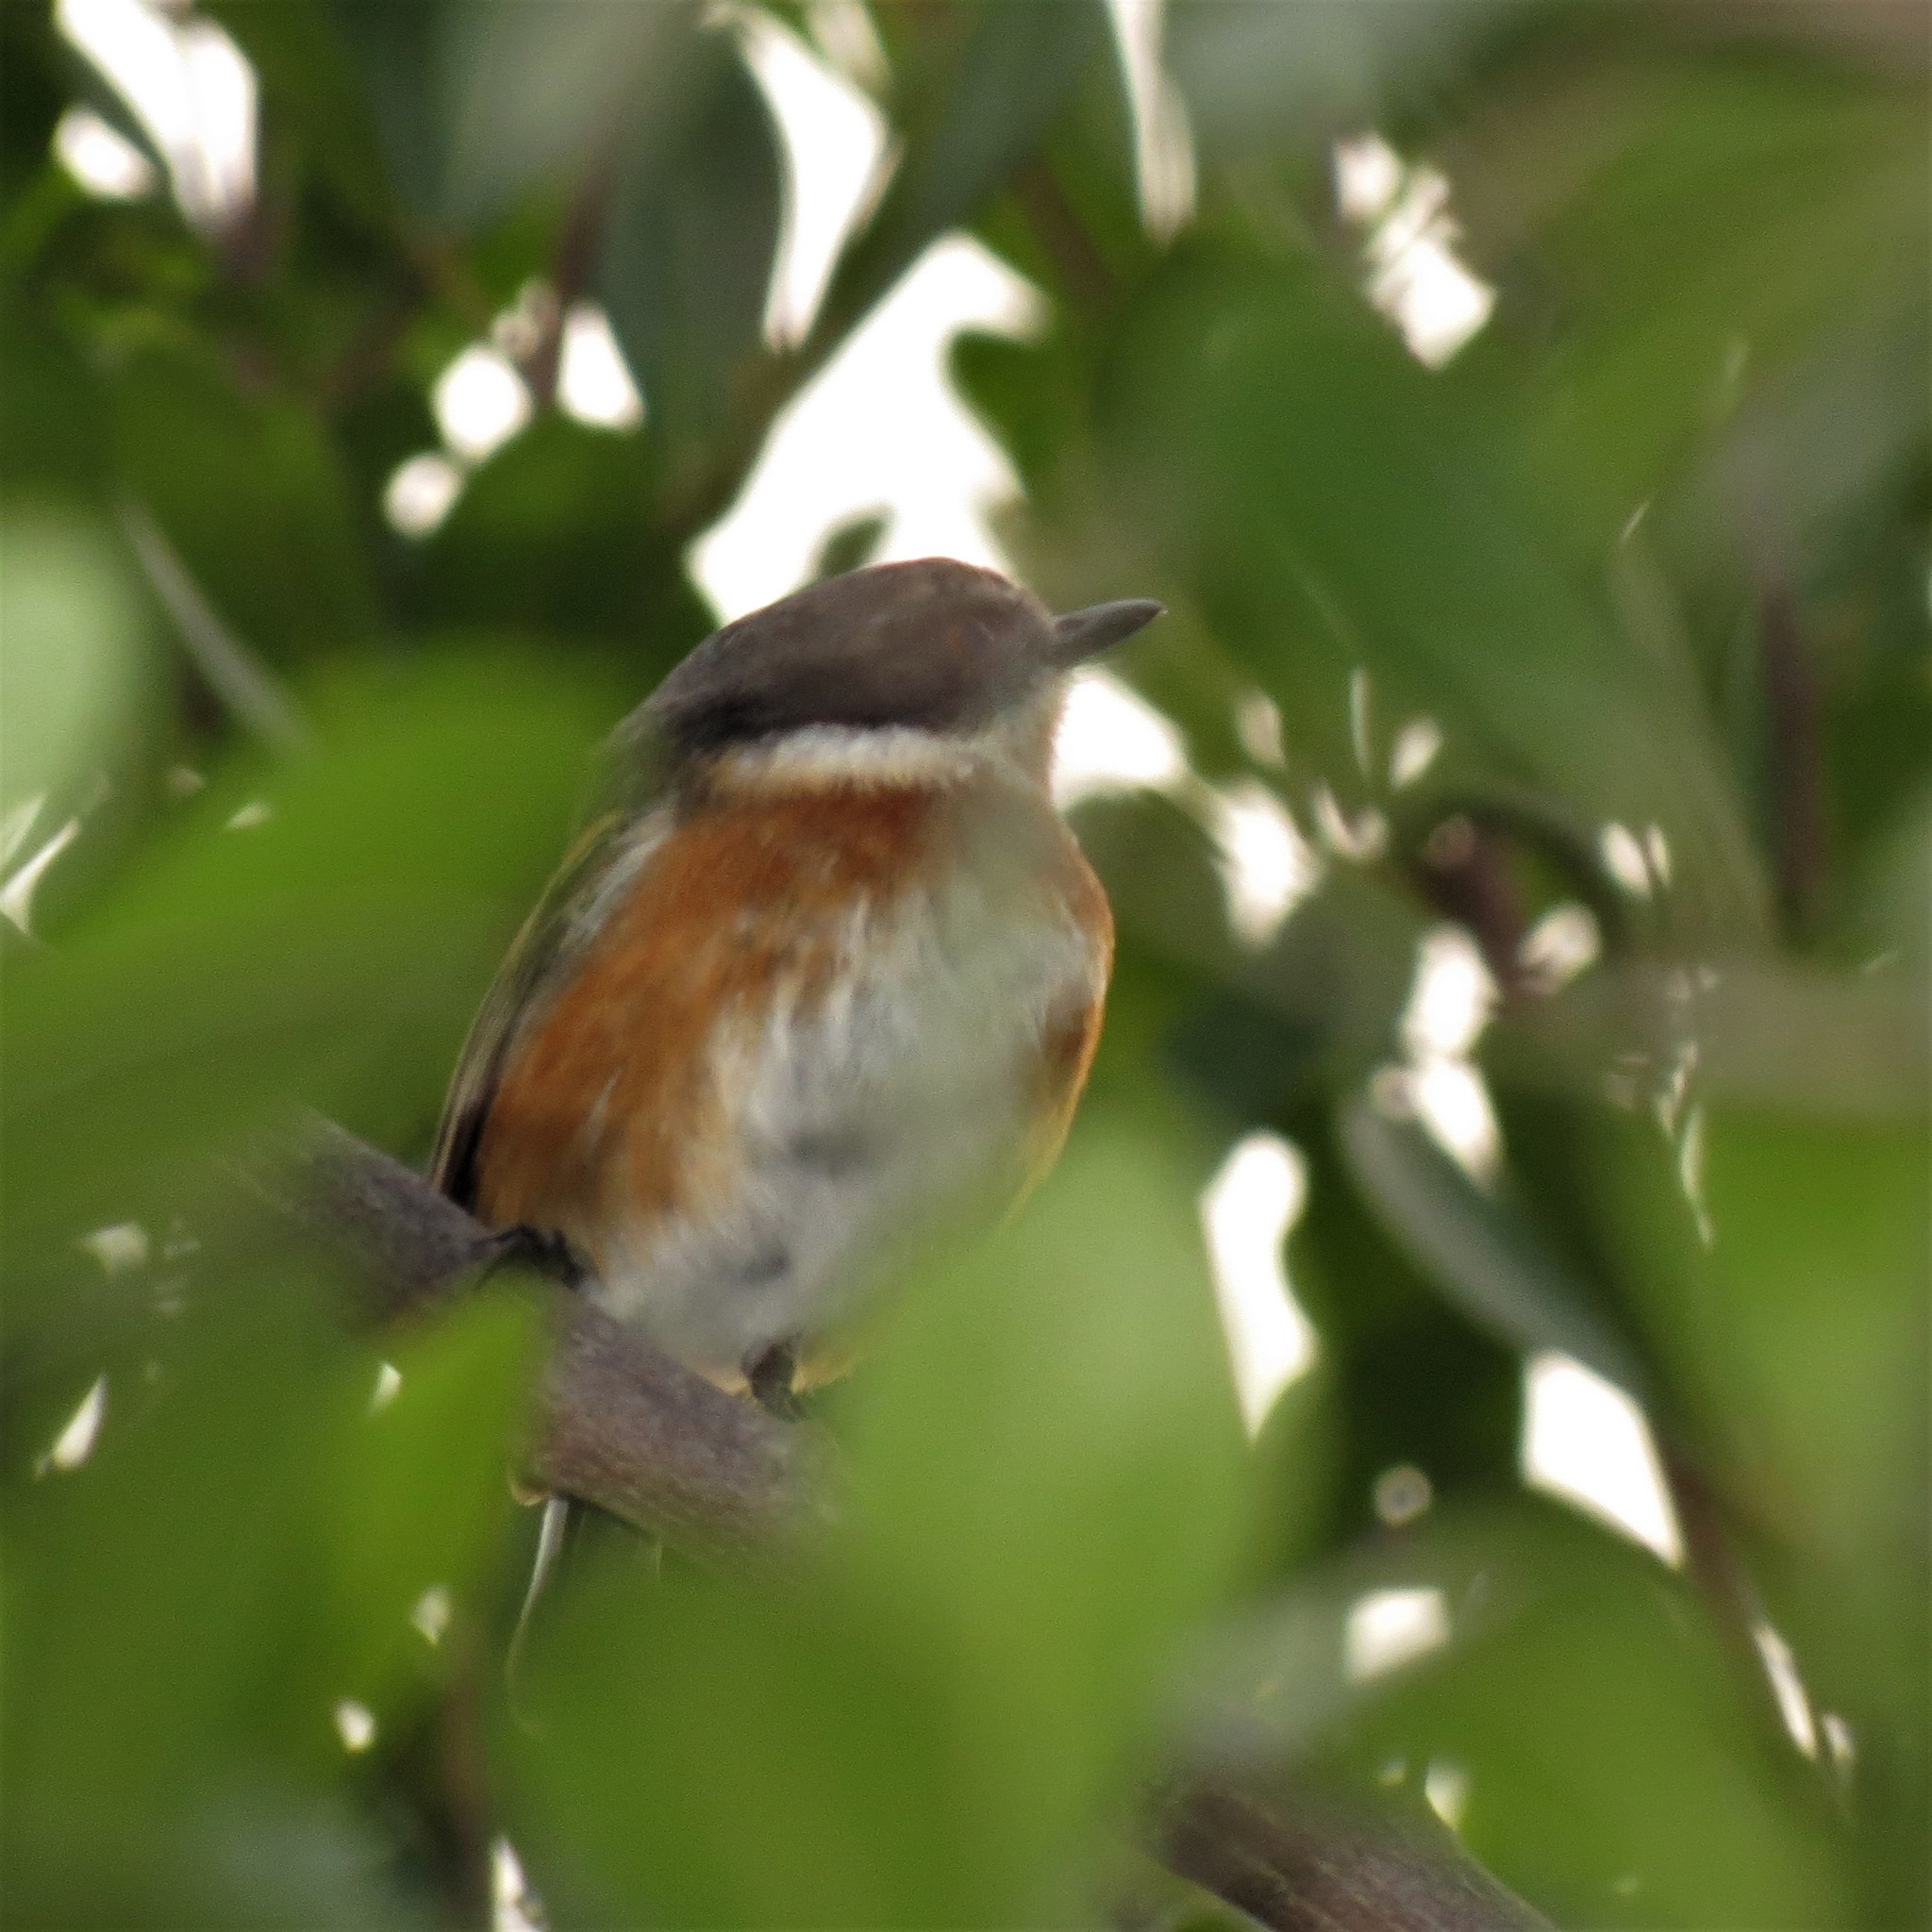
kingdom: Animalia
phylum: Chordata
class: Aves
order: Passeriformes
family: Platysteiridae
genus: Batis
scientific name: Batis capensis
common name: Cape batis
